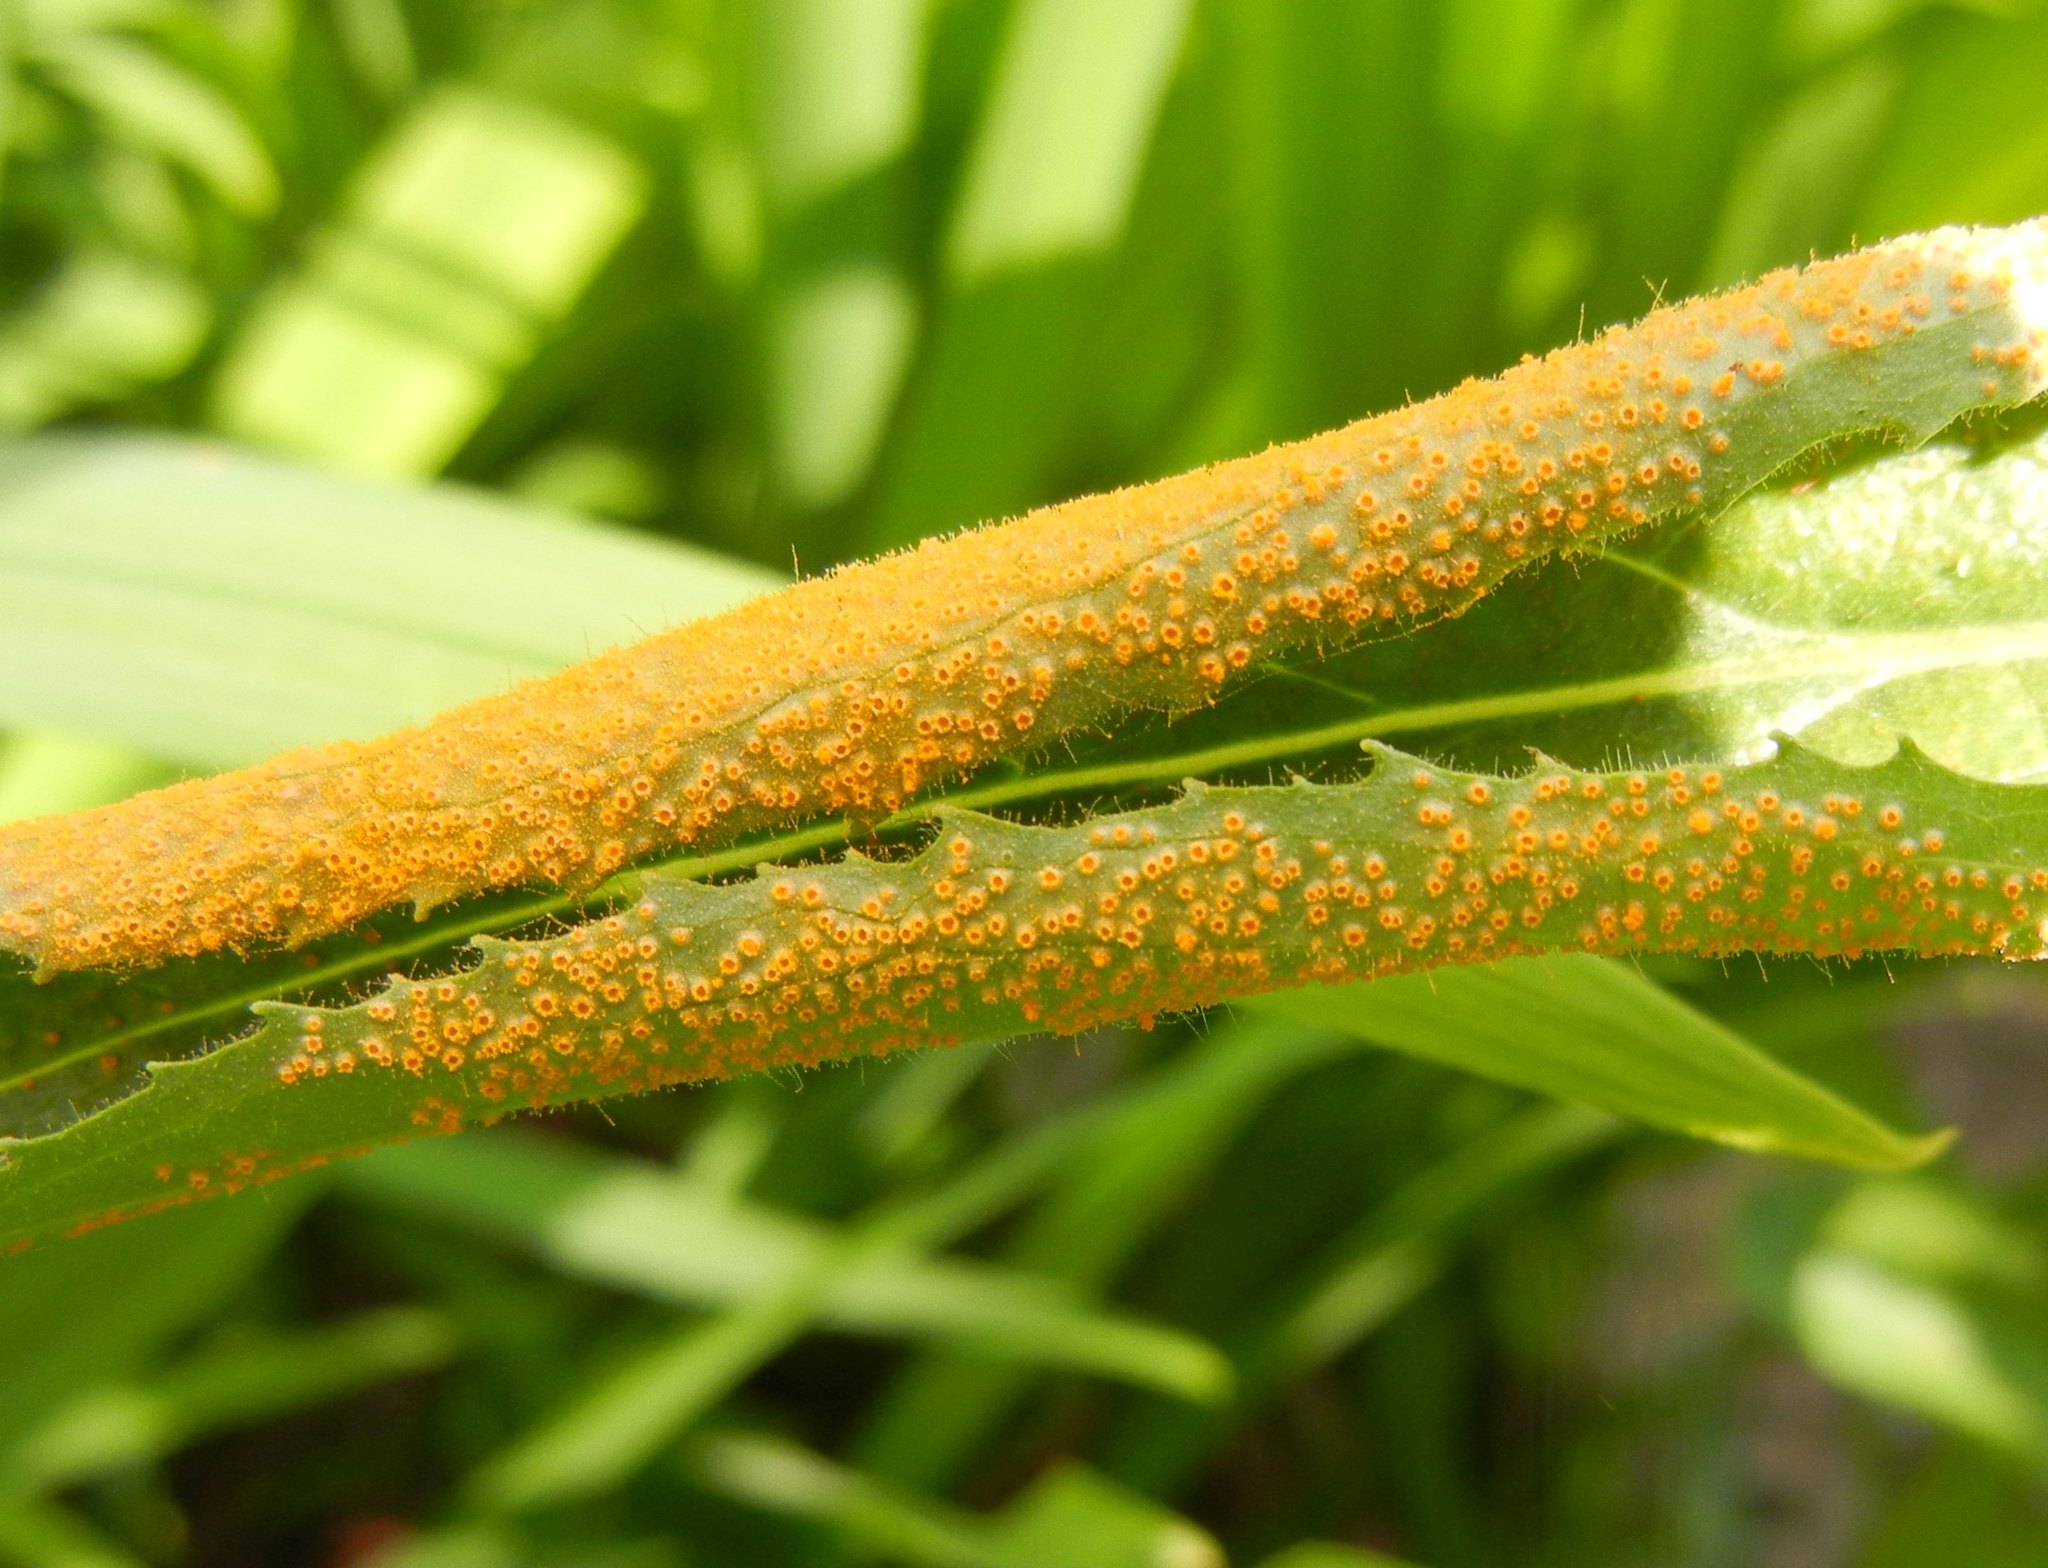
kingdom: Fungi
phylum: Basidiomycota
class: Pucciniomycetes
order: Pucciniales
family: Pucciniaceae
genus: Puccinia
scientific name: Puccinia pulverulenta
